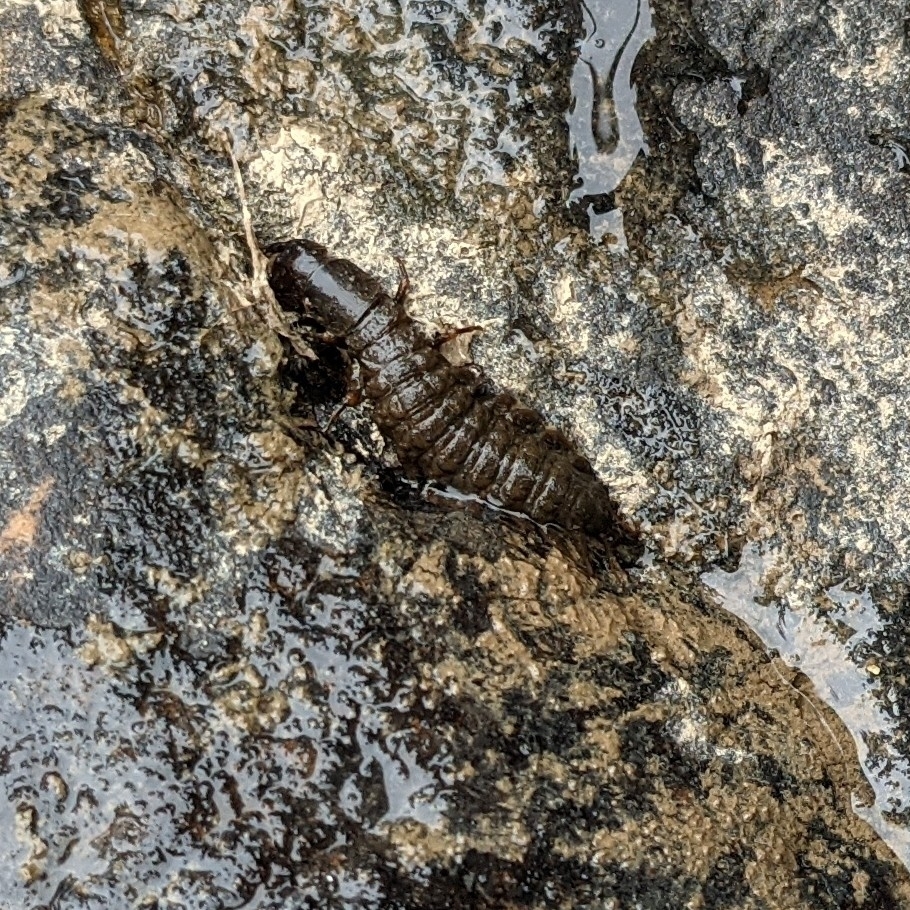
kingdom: Animalia
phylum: Arthropoda
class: Insecta
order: Megaloptera
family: Corydalidae
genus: Corydalus
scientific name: Corydalus cornutus
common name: Dobsonfly
